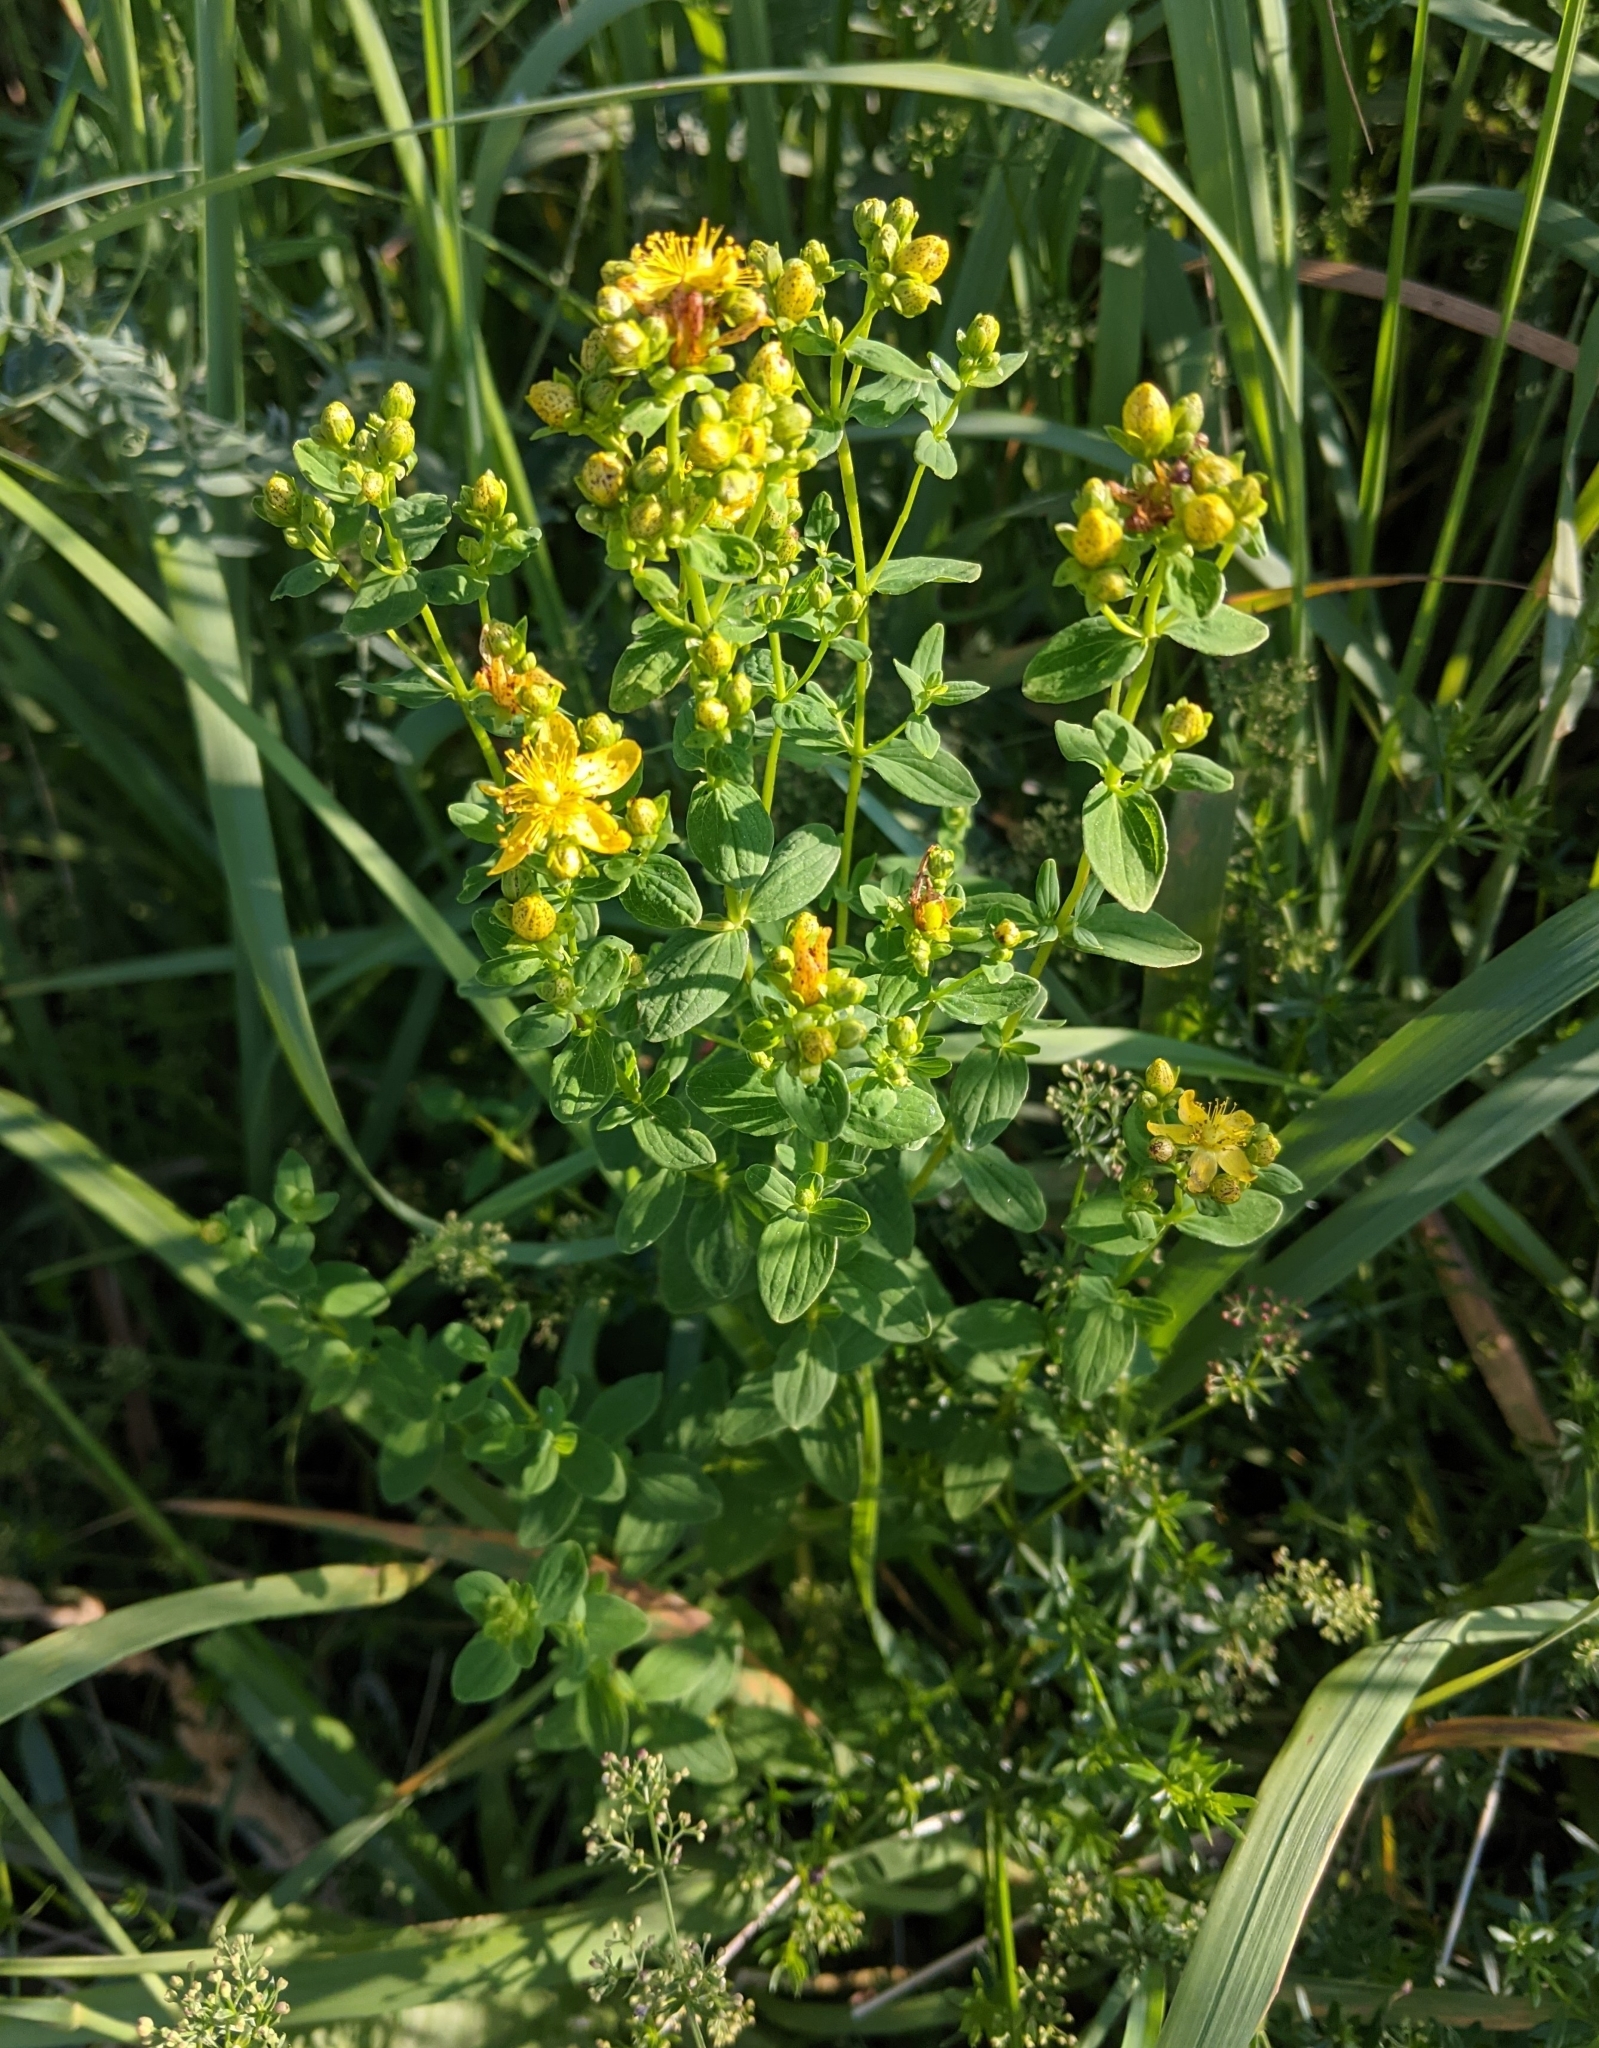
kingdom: Plantae
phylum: Tracheophyta
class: Magnoliopsida
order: Malpighiales
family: Hypericaceae
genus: Hypericum
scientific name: Hypericum maculatum
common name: Imperforate st. john's-wort
